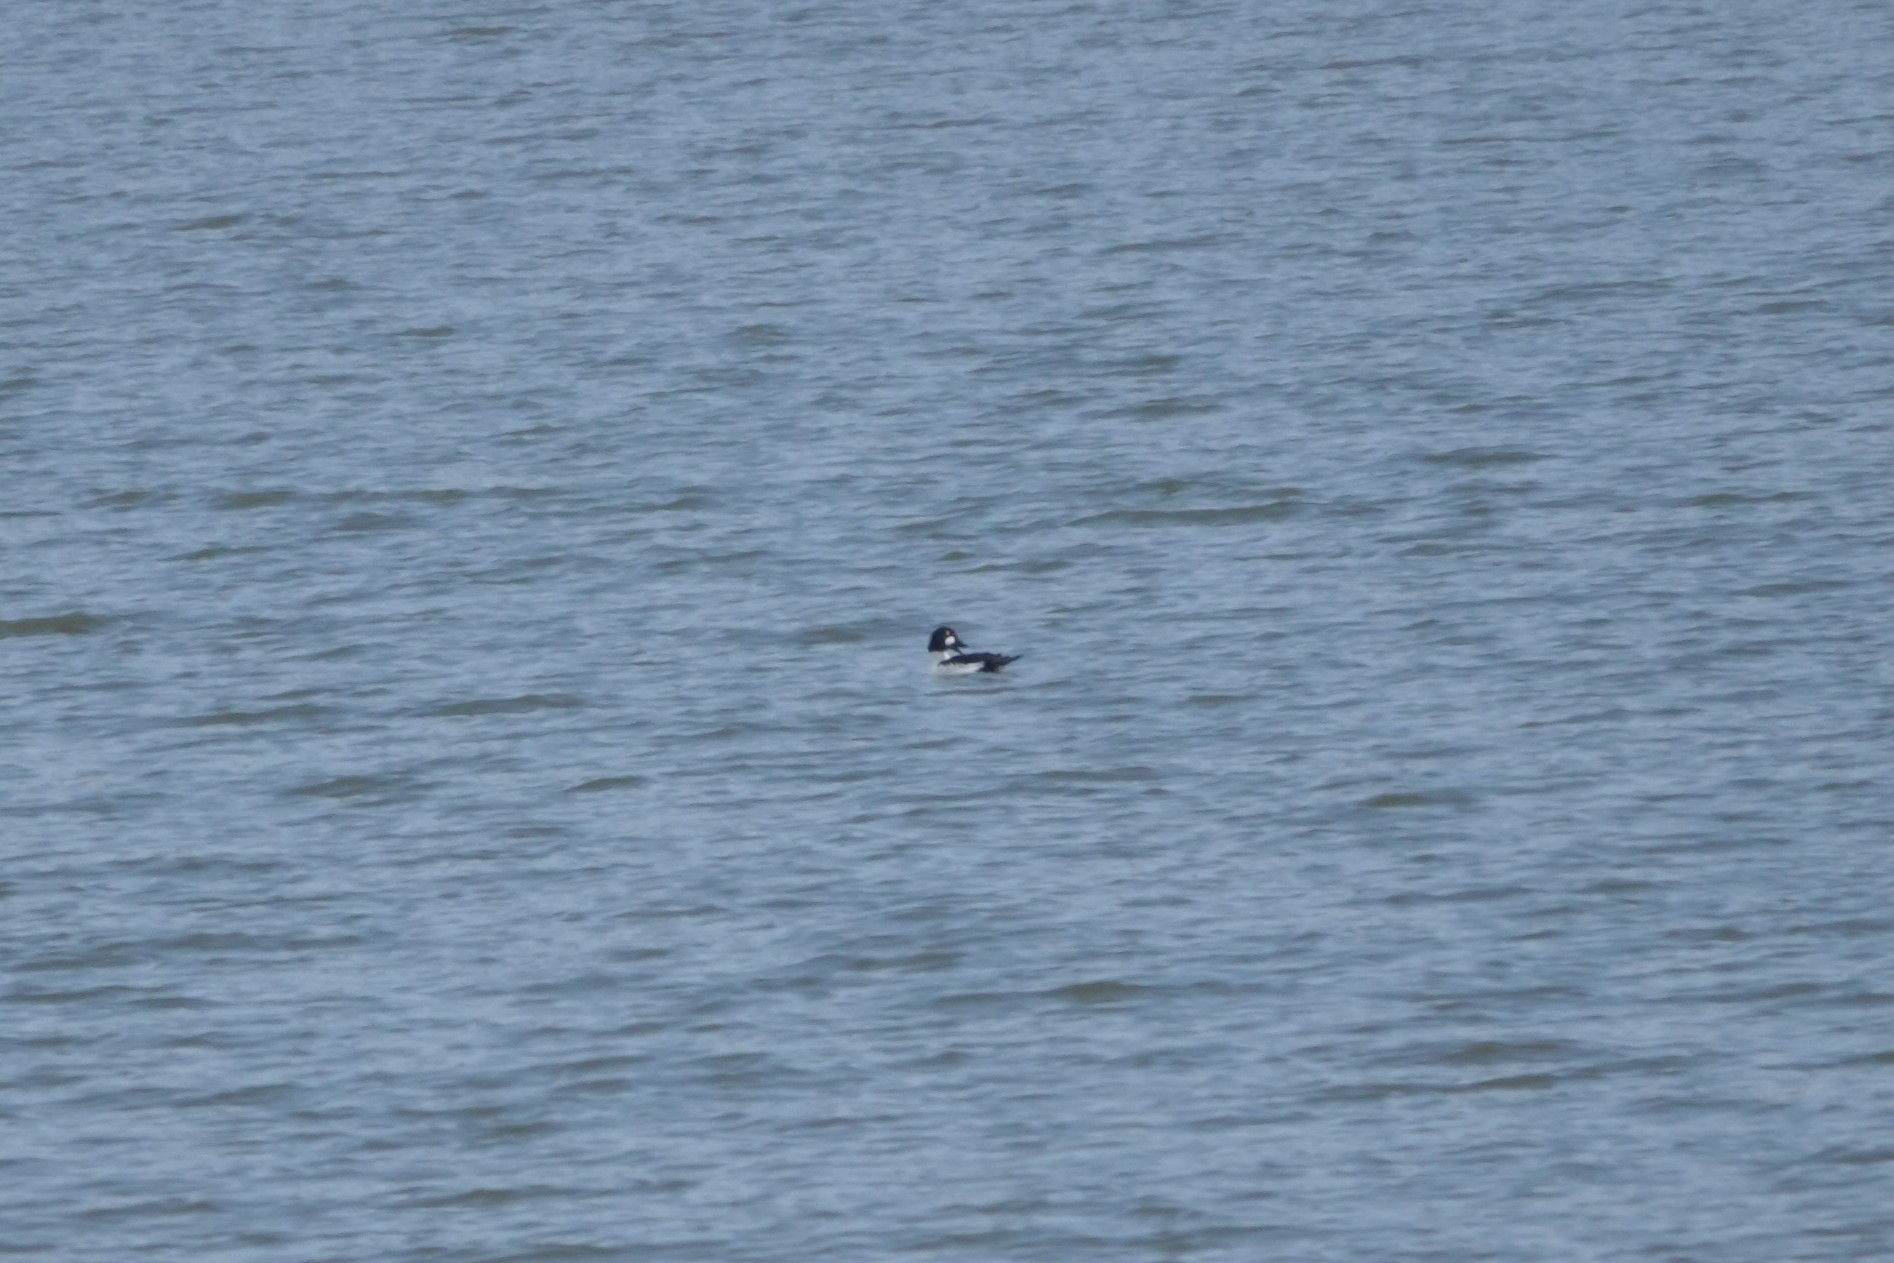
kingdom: Animalia
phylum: Chordata
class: Aves
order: Anseriformes
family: Anatidae
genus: Bucephala
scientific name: Bucephala clangula
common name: Common goldeneye
